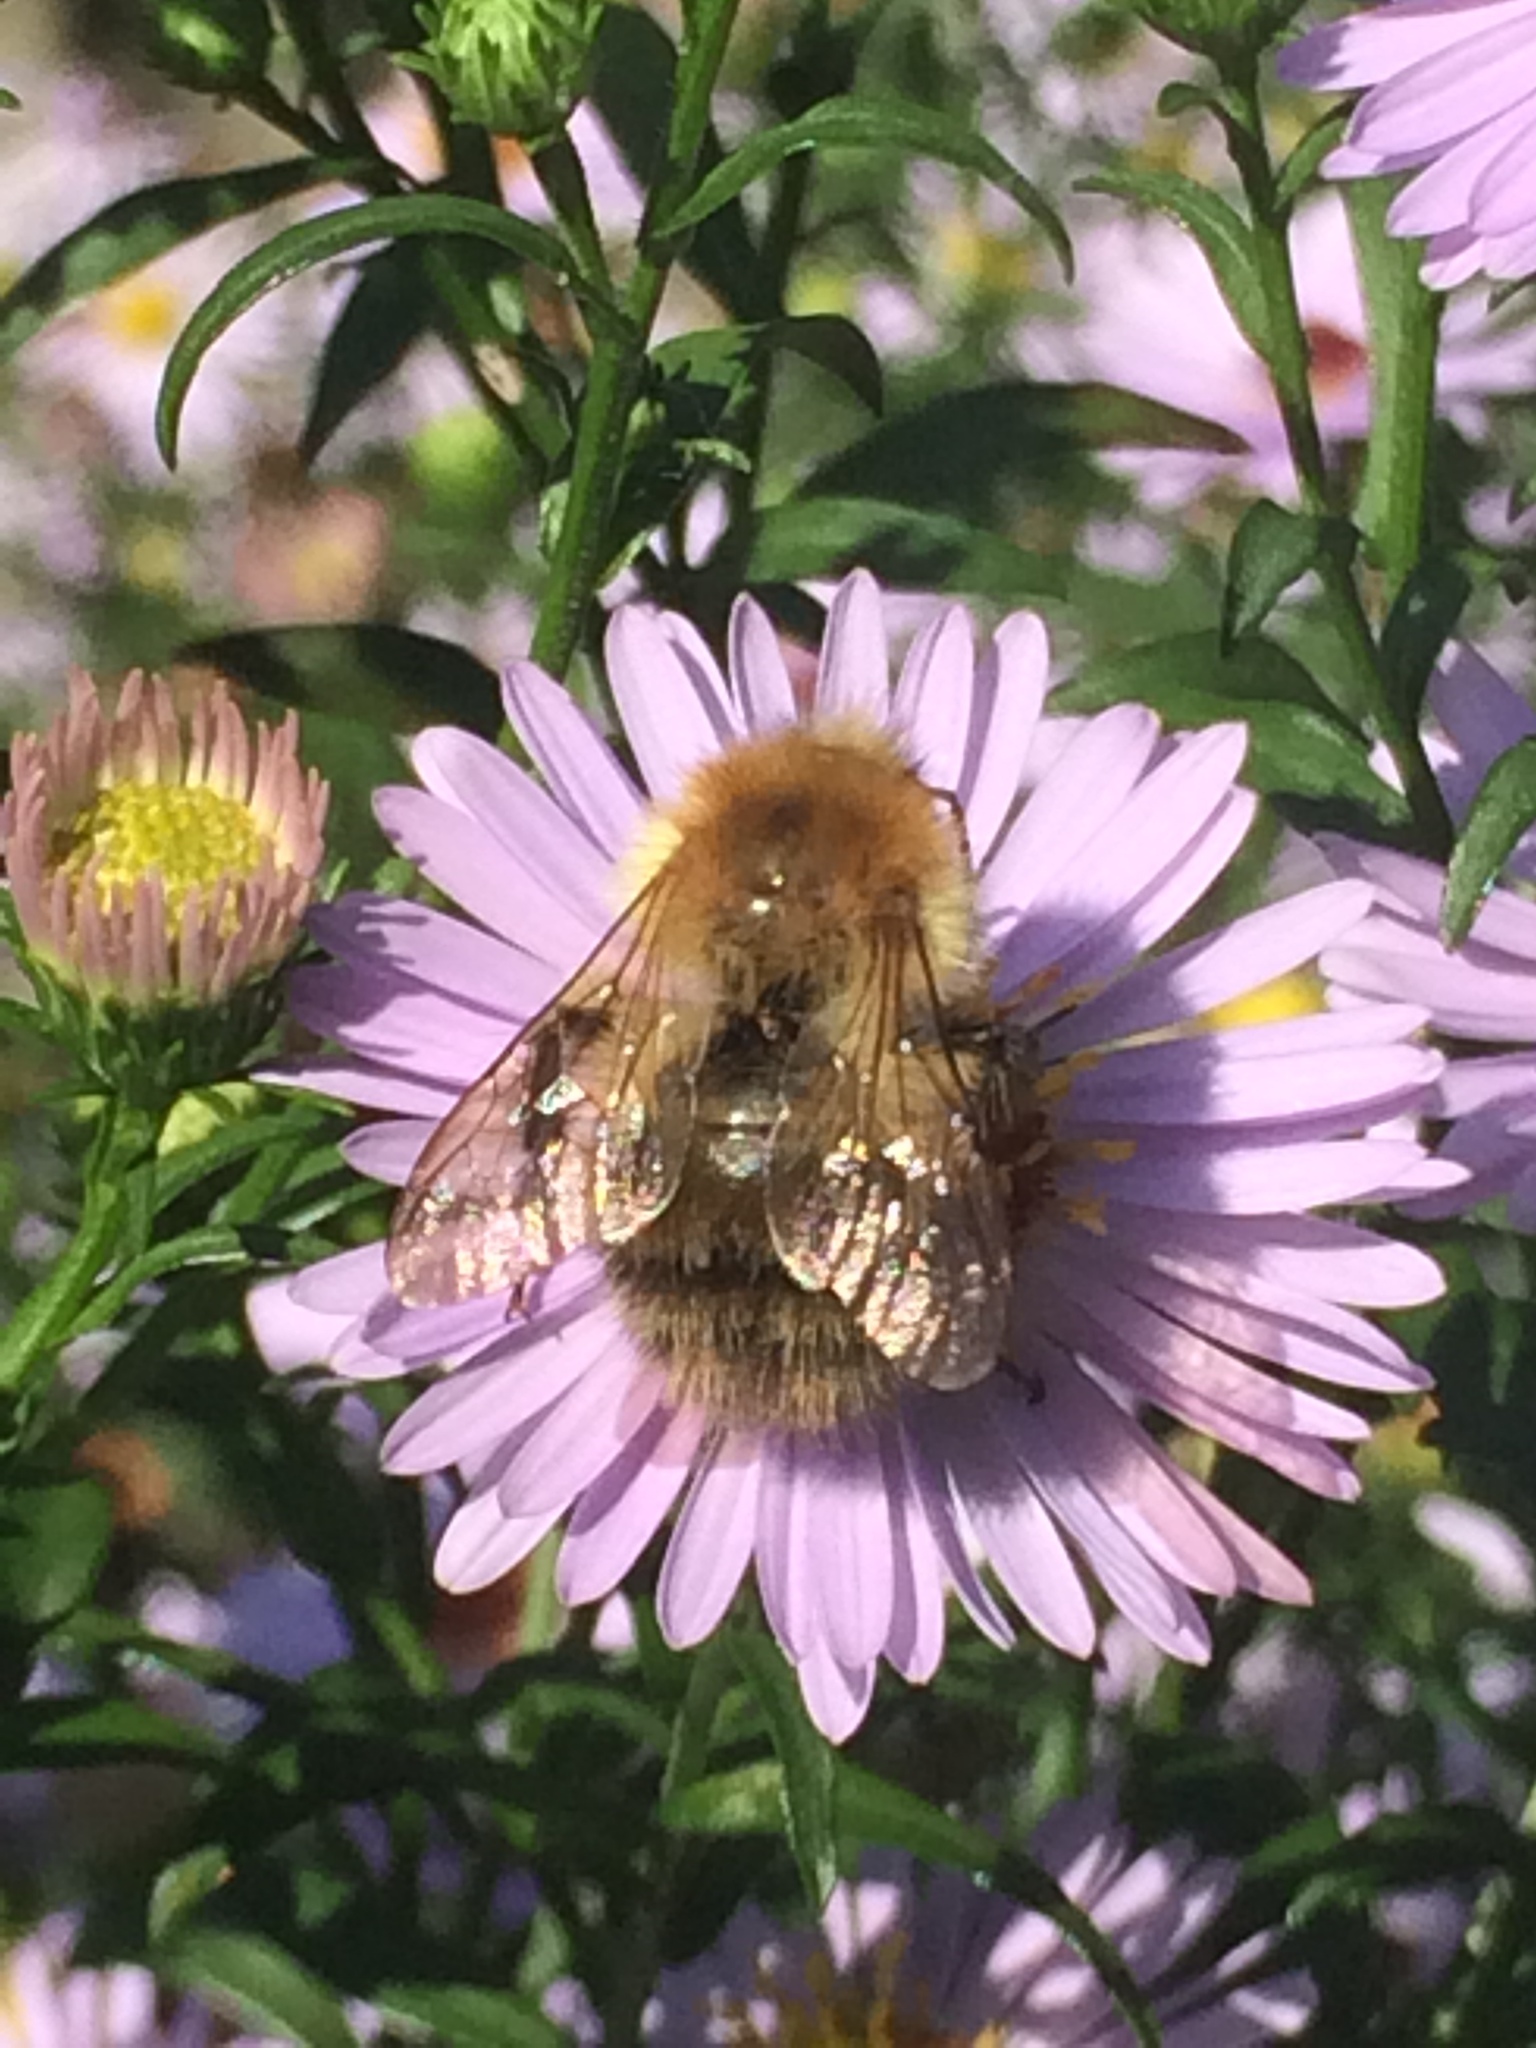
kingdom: Animalia
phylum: Arthropoda
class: Insecta
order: Hymenoptera
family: Apidae
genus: Bombus
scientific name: Bombus pascuorum
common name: Common carder bee
